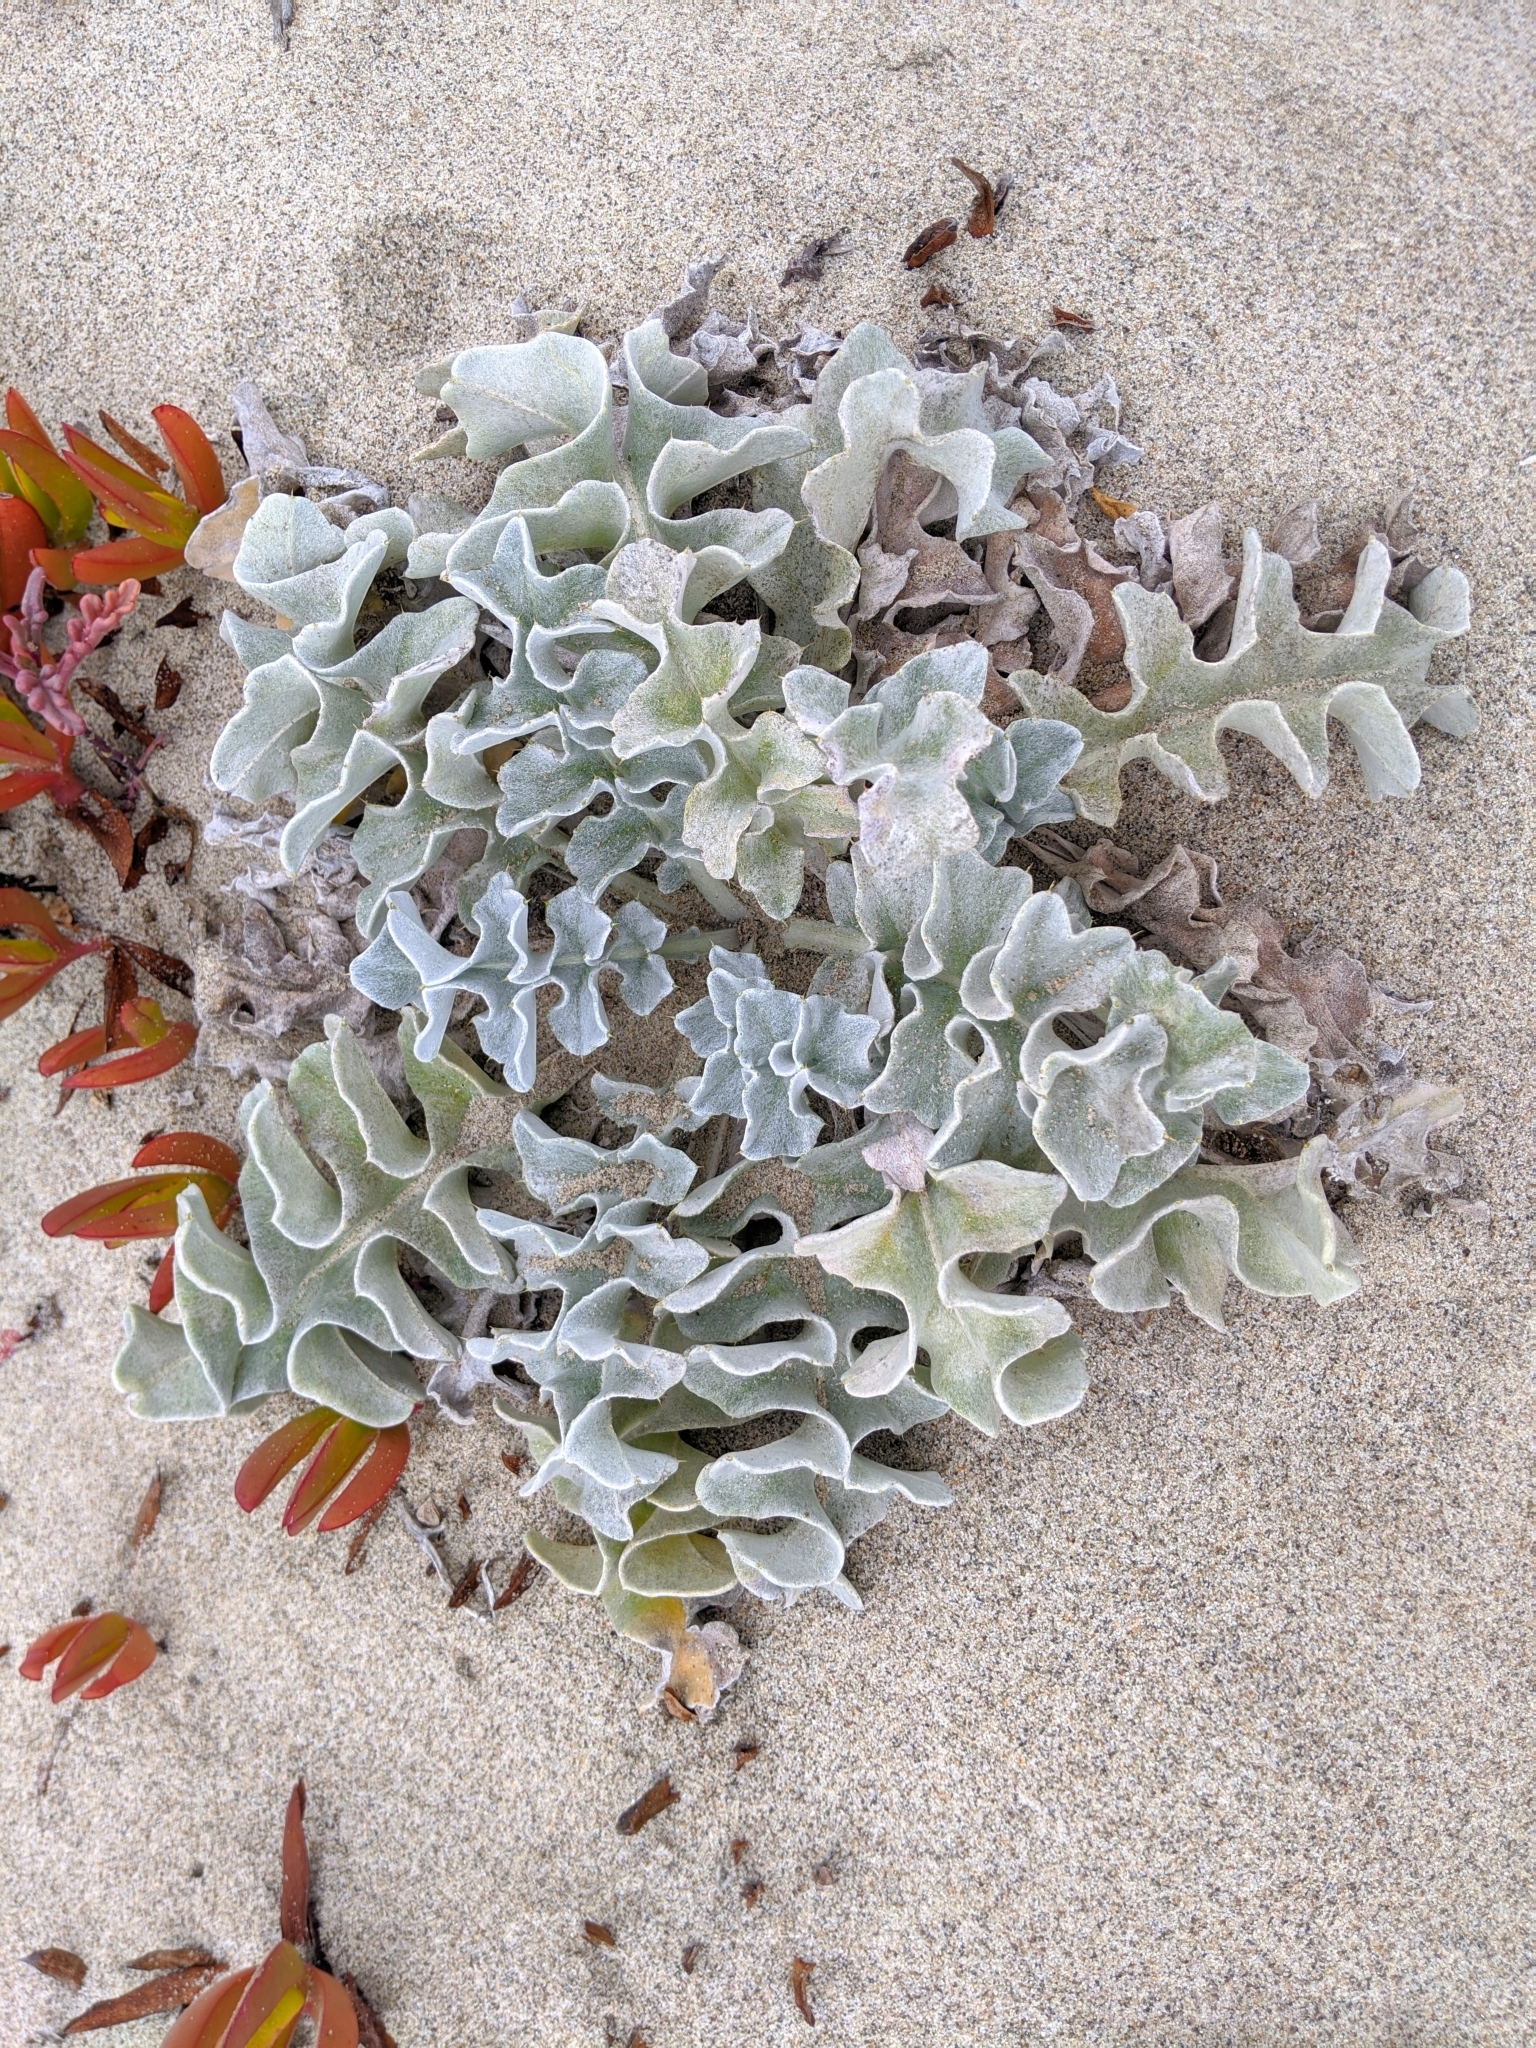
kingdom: Plantae
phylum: Tracheophyta
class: Magnoliopsida
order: Asterales
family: Asteraceae
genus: Cirsium
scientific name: Cirsium rhothophilum
